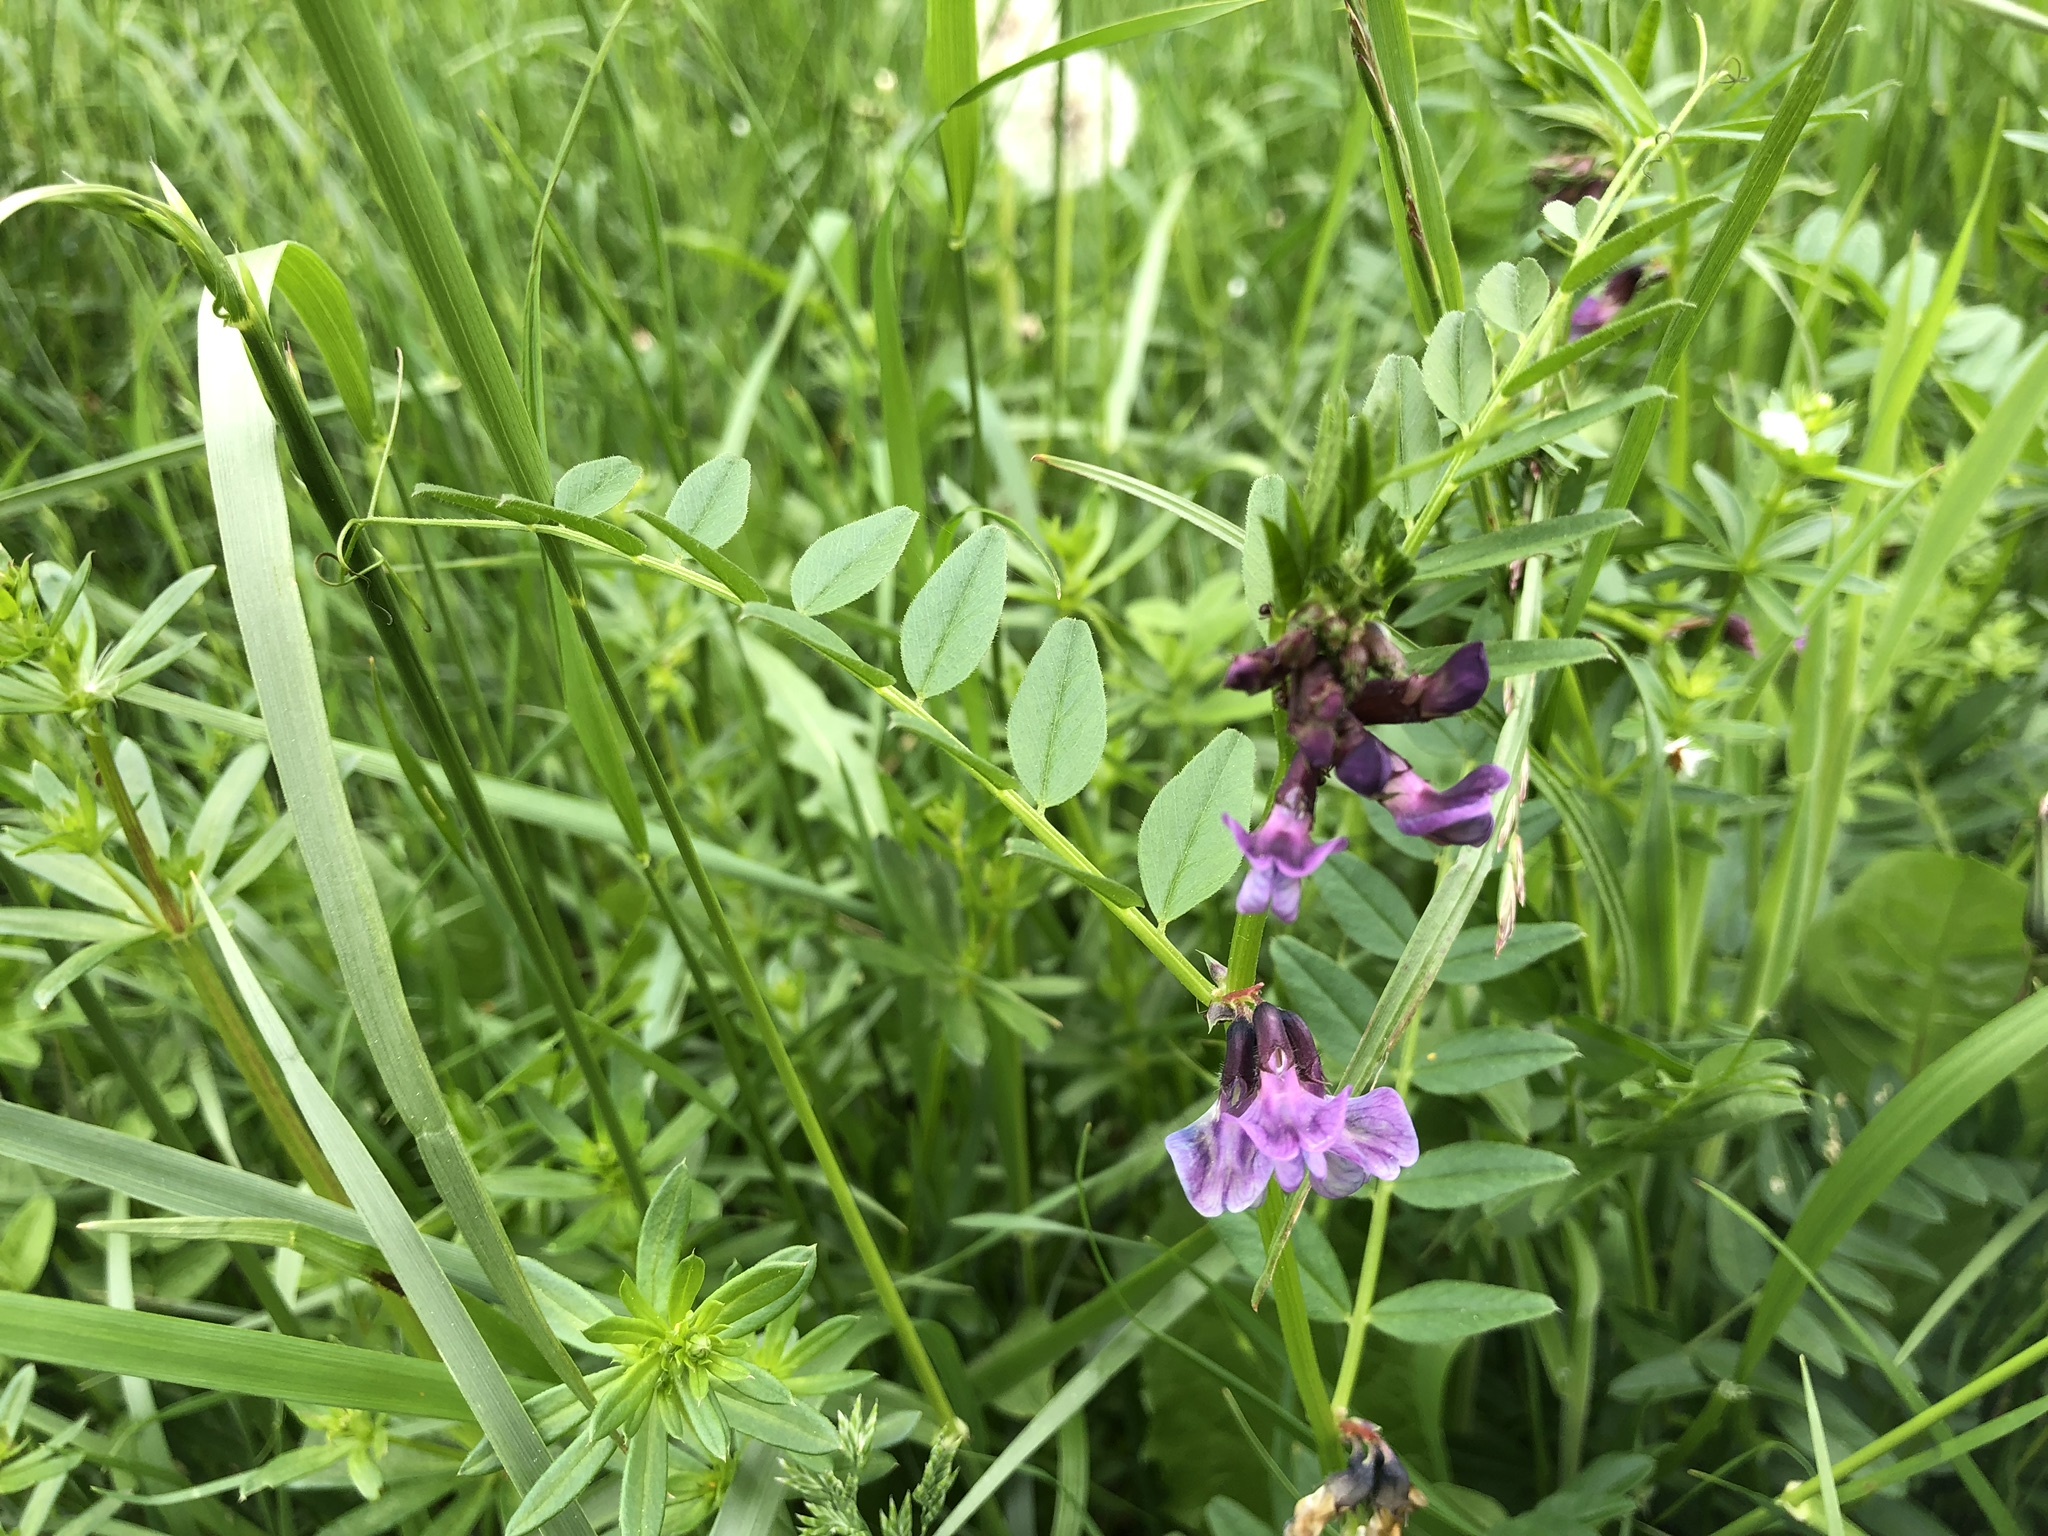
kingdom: Plantae
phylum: Tracheophyta
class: Magnoliopsida
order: Fabales
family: Fabaceae
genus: Vicia
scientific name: Vicia sepium
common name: Bush vetch
